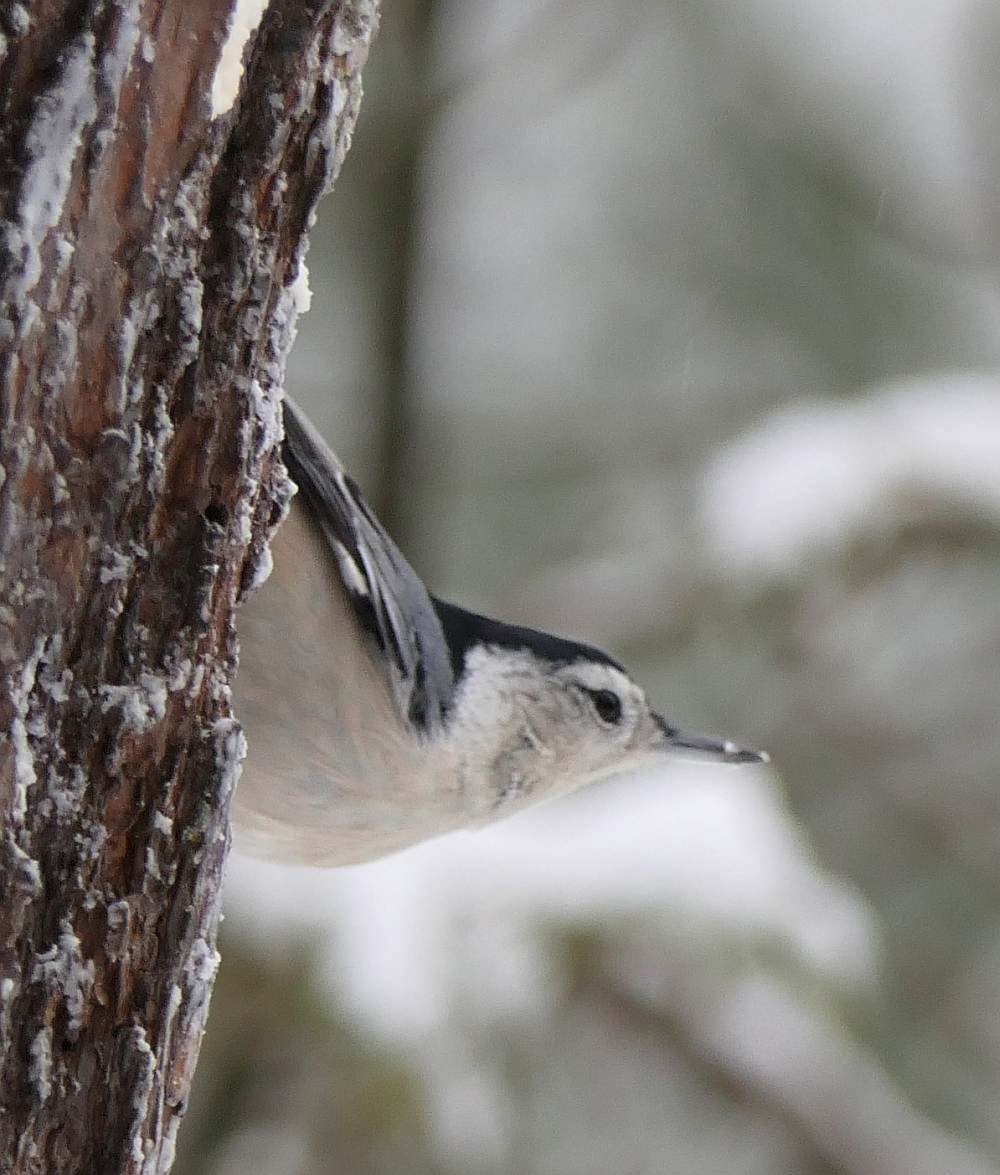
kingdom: Animalia
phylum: Chordata
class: Aves
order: Passeriformes
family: Sittidae
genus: Sitta
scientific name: Sitta carolinensis
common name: White-breasted nuthatch
